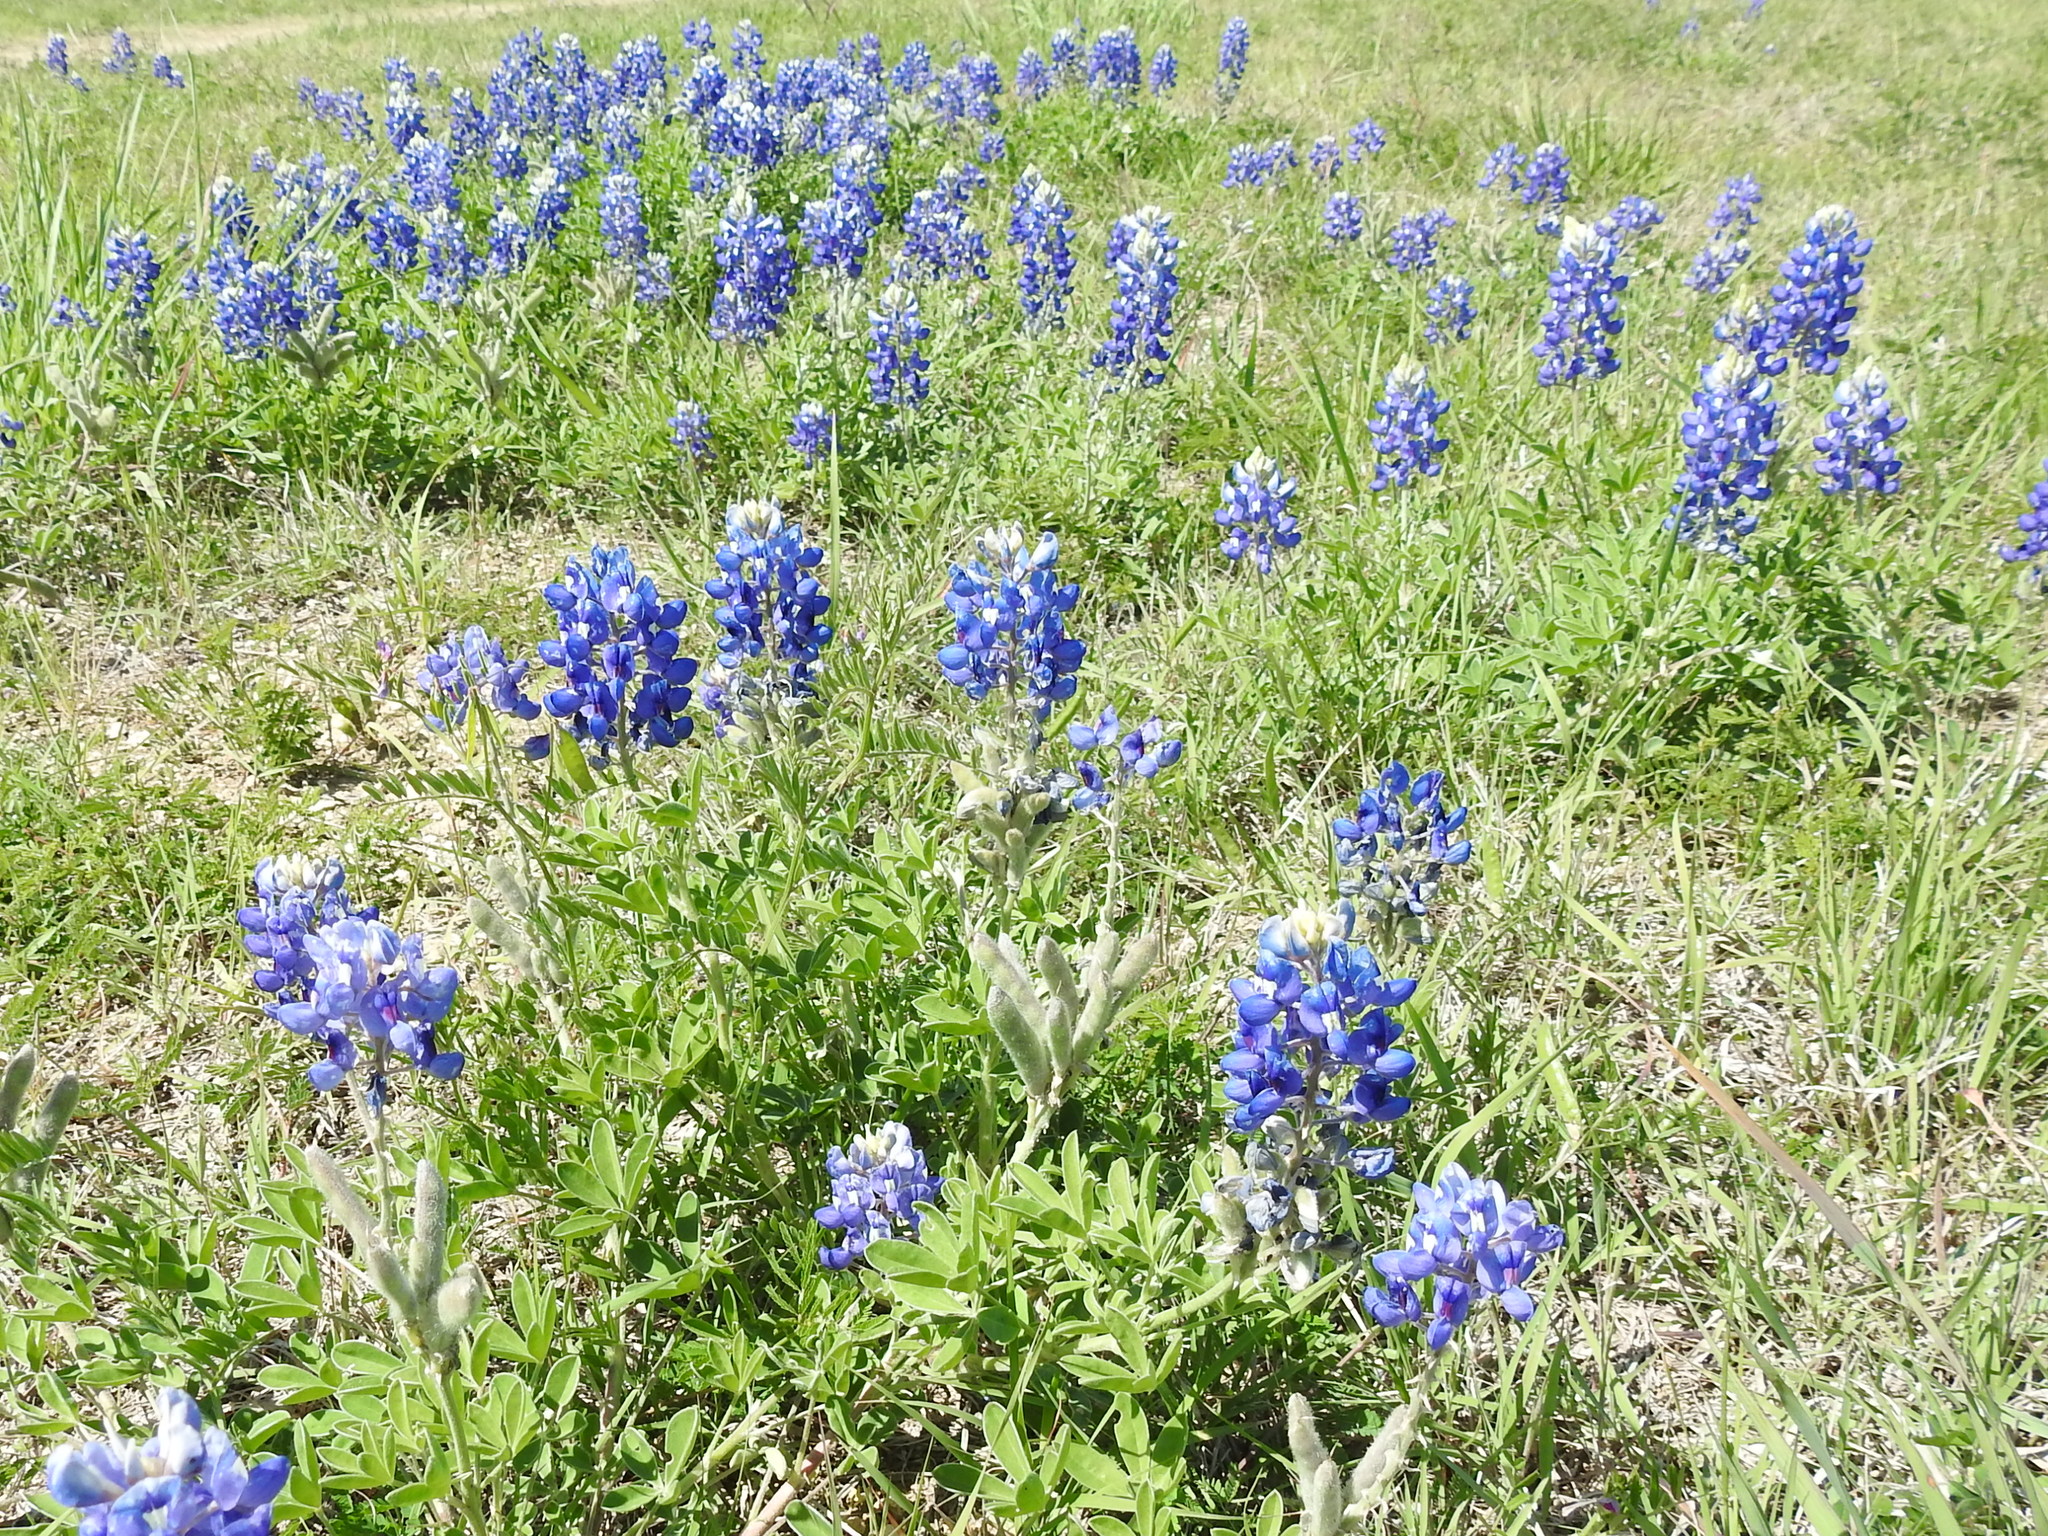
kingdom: Plantae
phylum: Tracheophyta
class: Magnoliopsida
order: Fabales
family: Fabaceae
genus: Lupinus
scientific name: Lupinus texensis
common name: Texas bluebonnet
